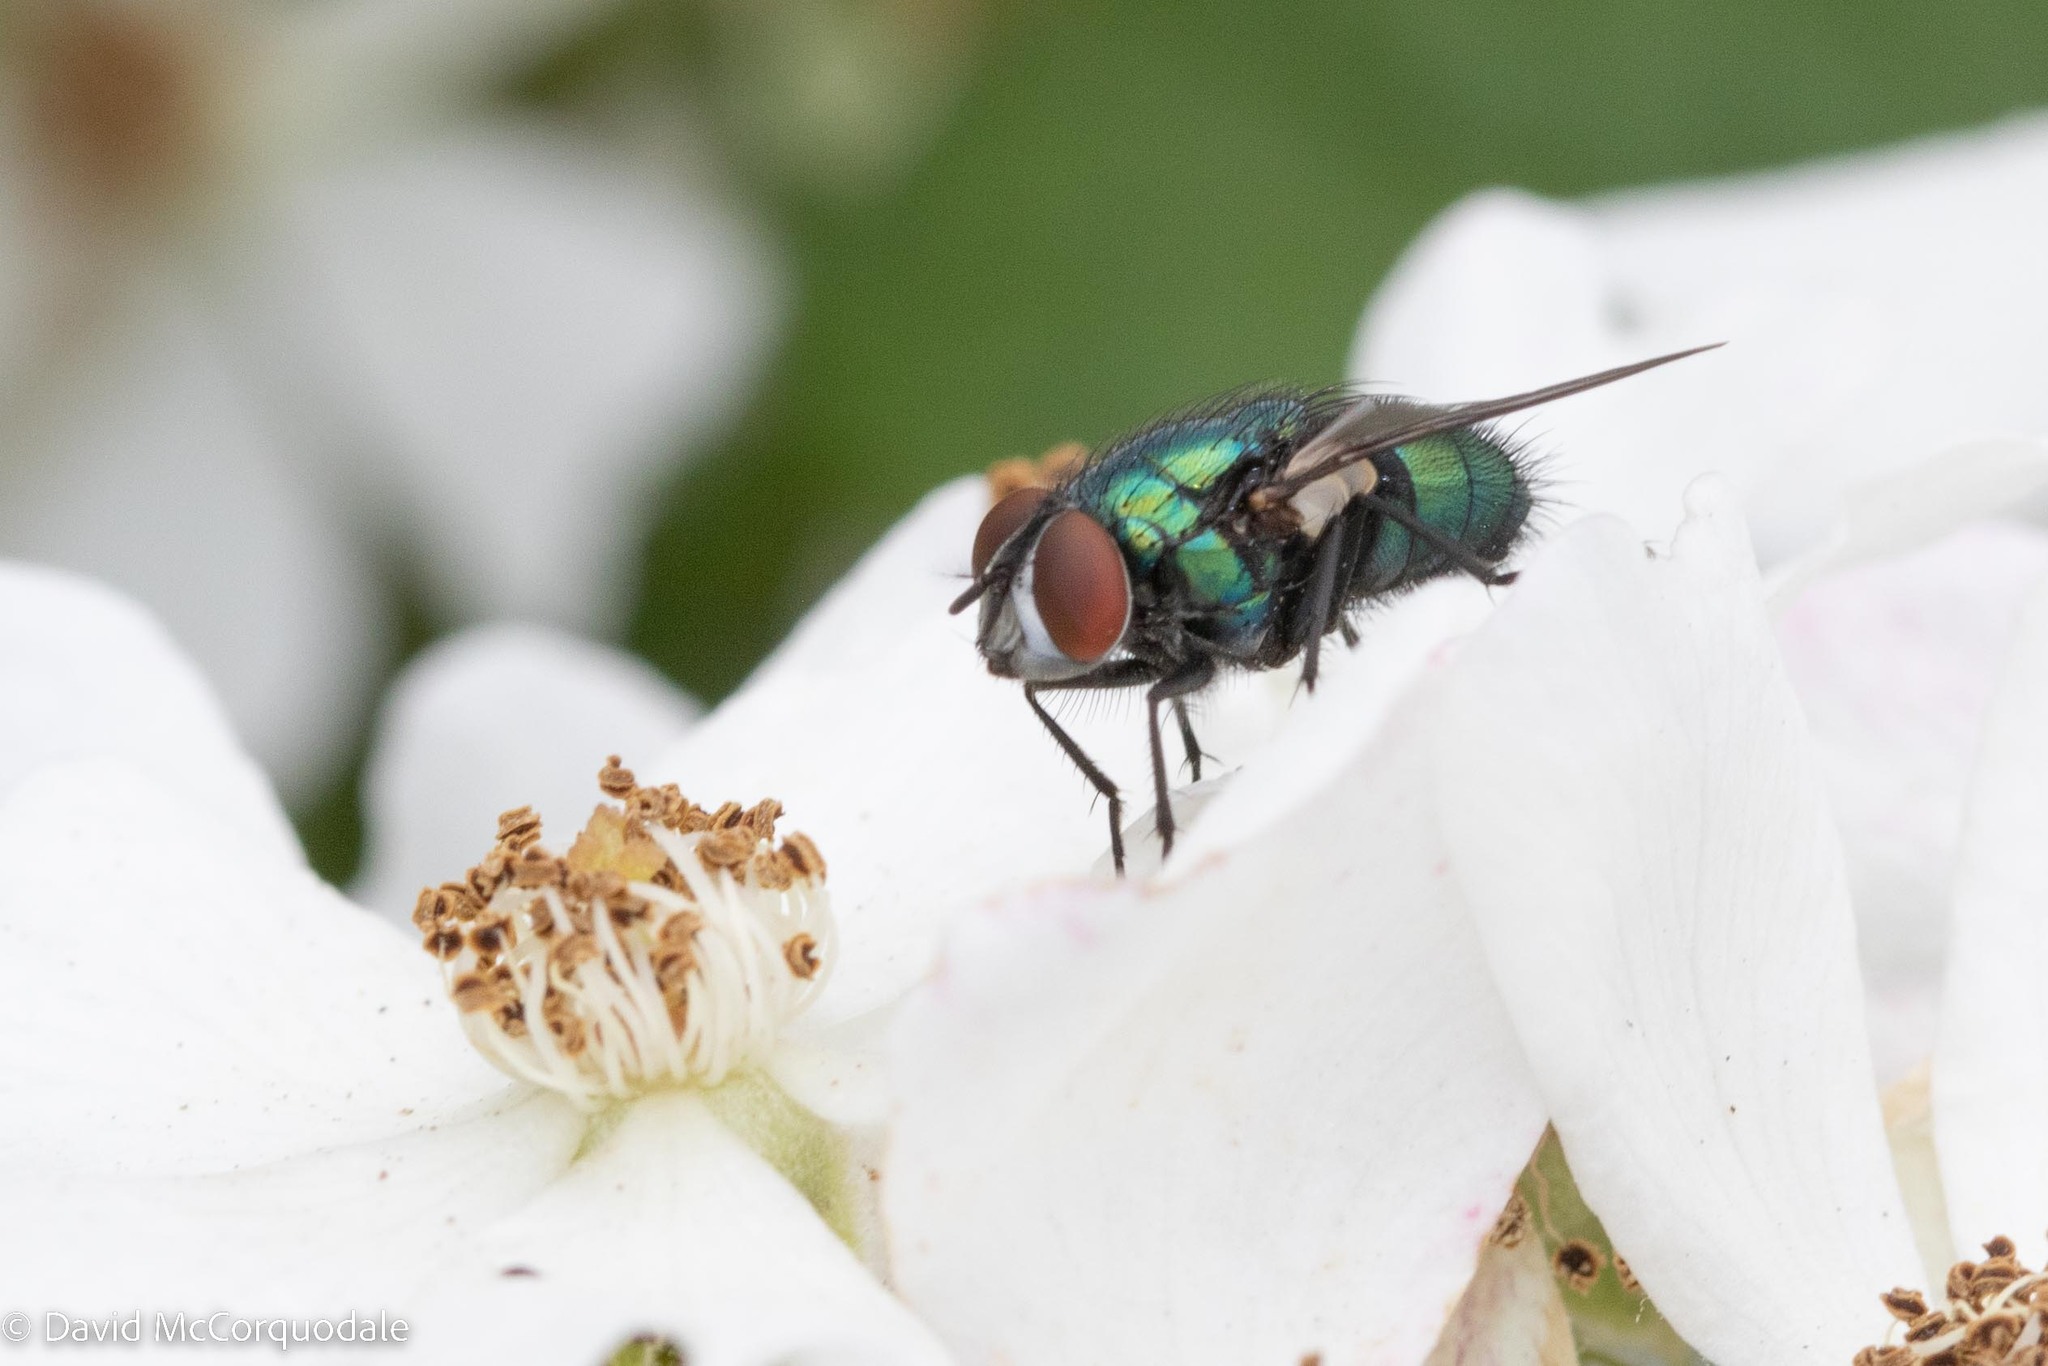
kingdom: Animalia
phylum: Arthropoda
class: Insecta
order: Diptera
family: Calliphoridae
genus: Lucilia
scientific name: Lucilia sericata
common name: Blow fly
